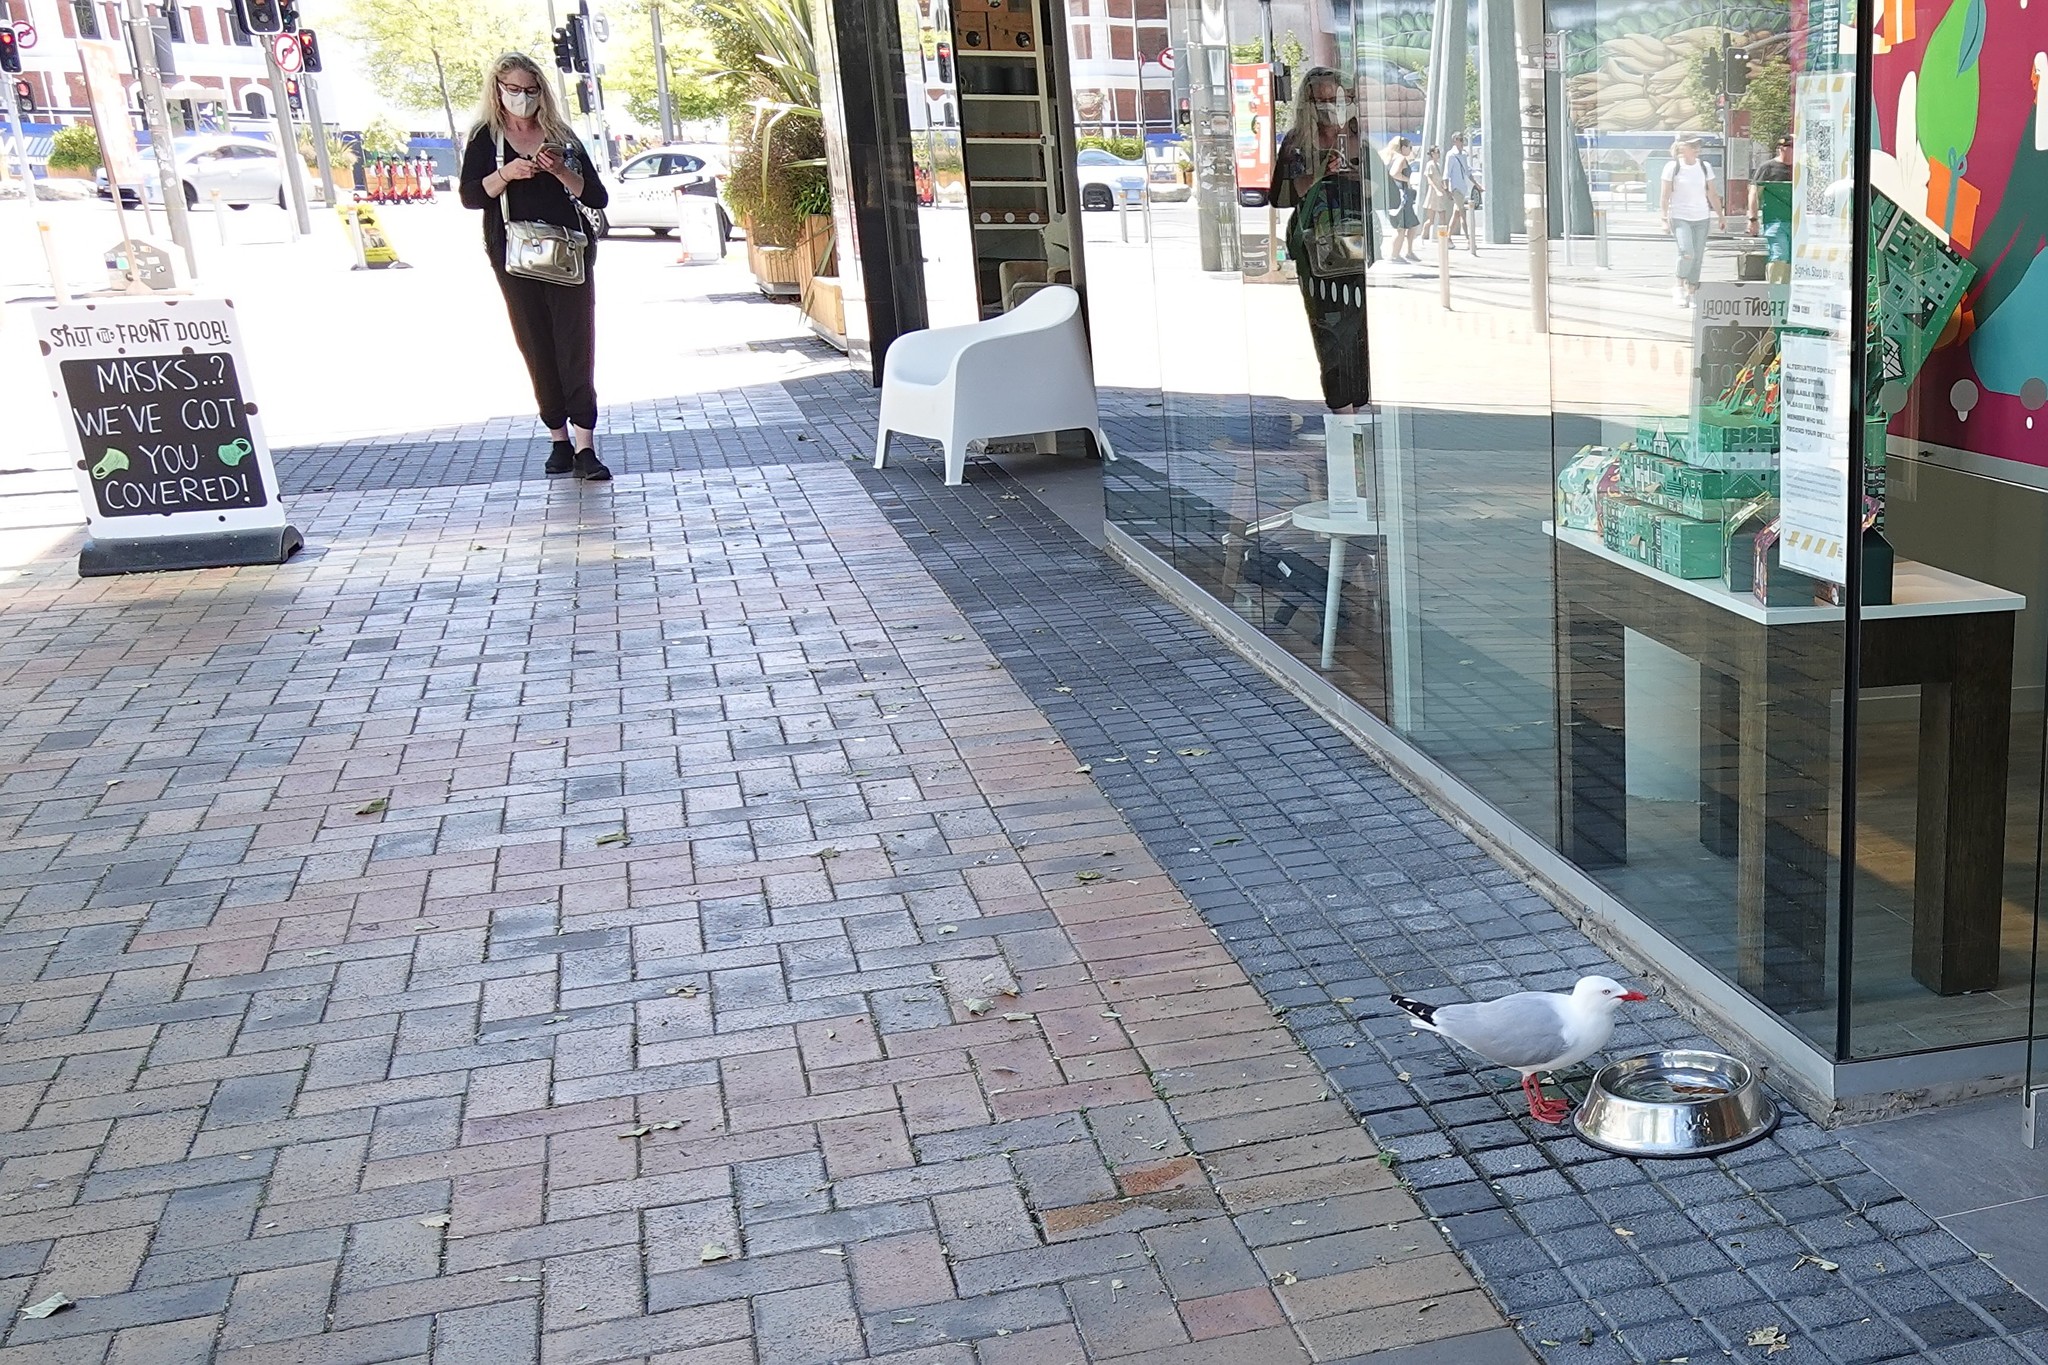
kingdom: Animalia
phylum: Chordata
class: Aves
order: Charadriiformes
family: Laridae
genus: Chroicocephalus
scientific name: Chroicocephalus novaehollandiae
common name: Silver gull
